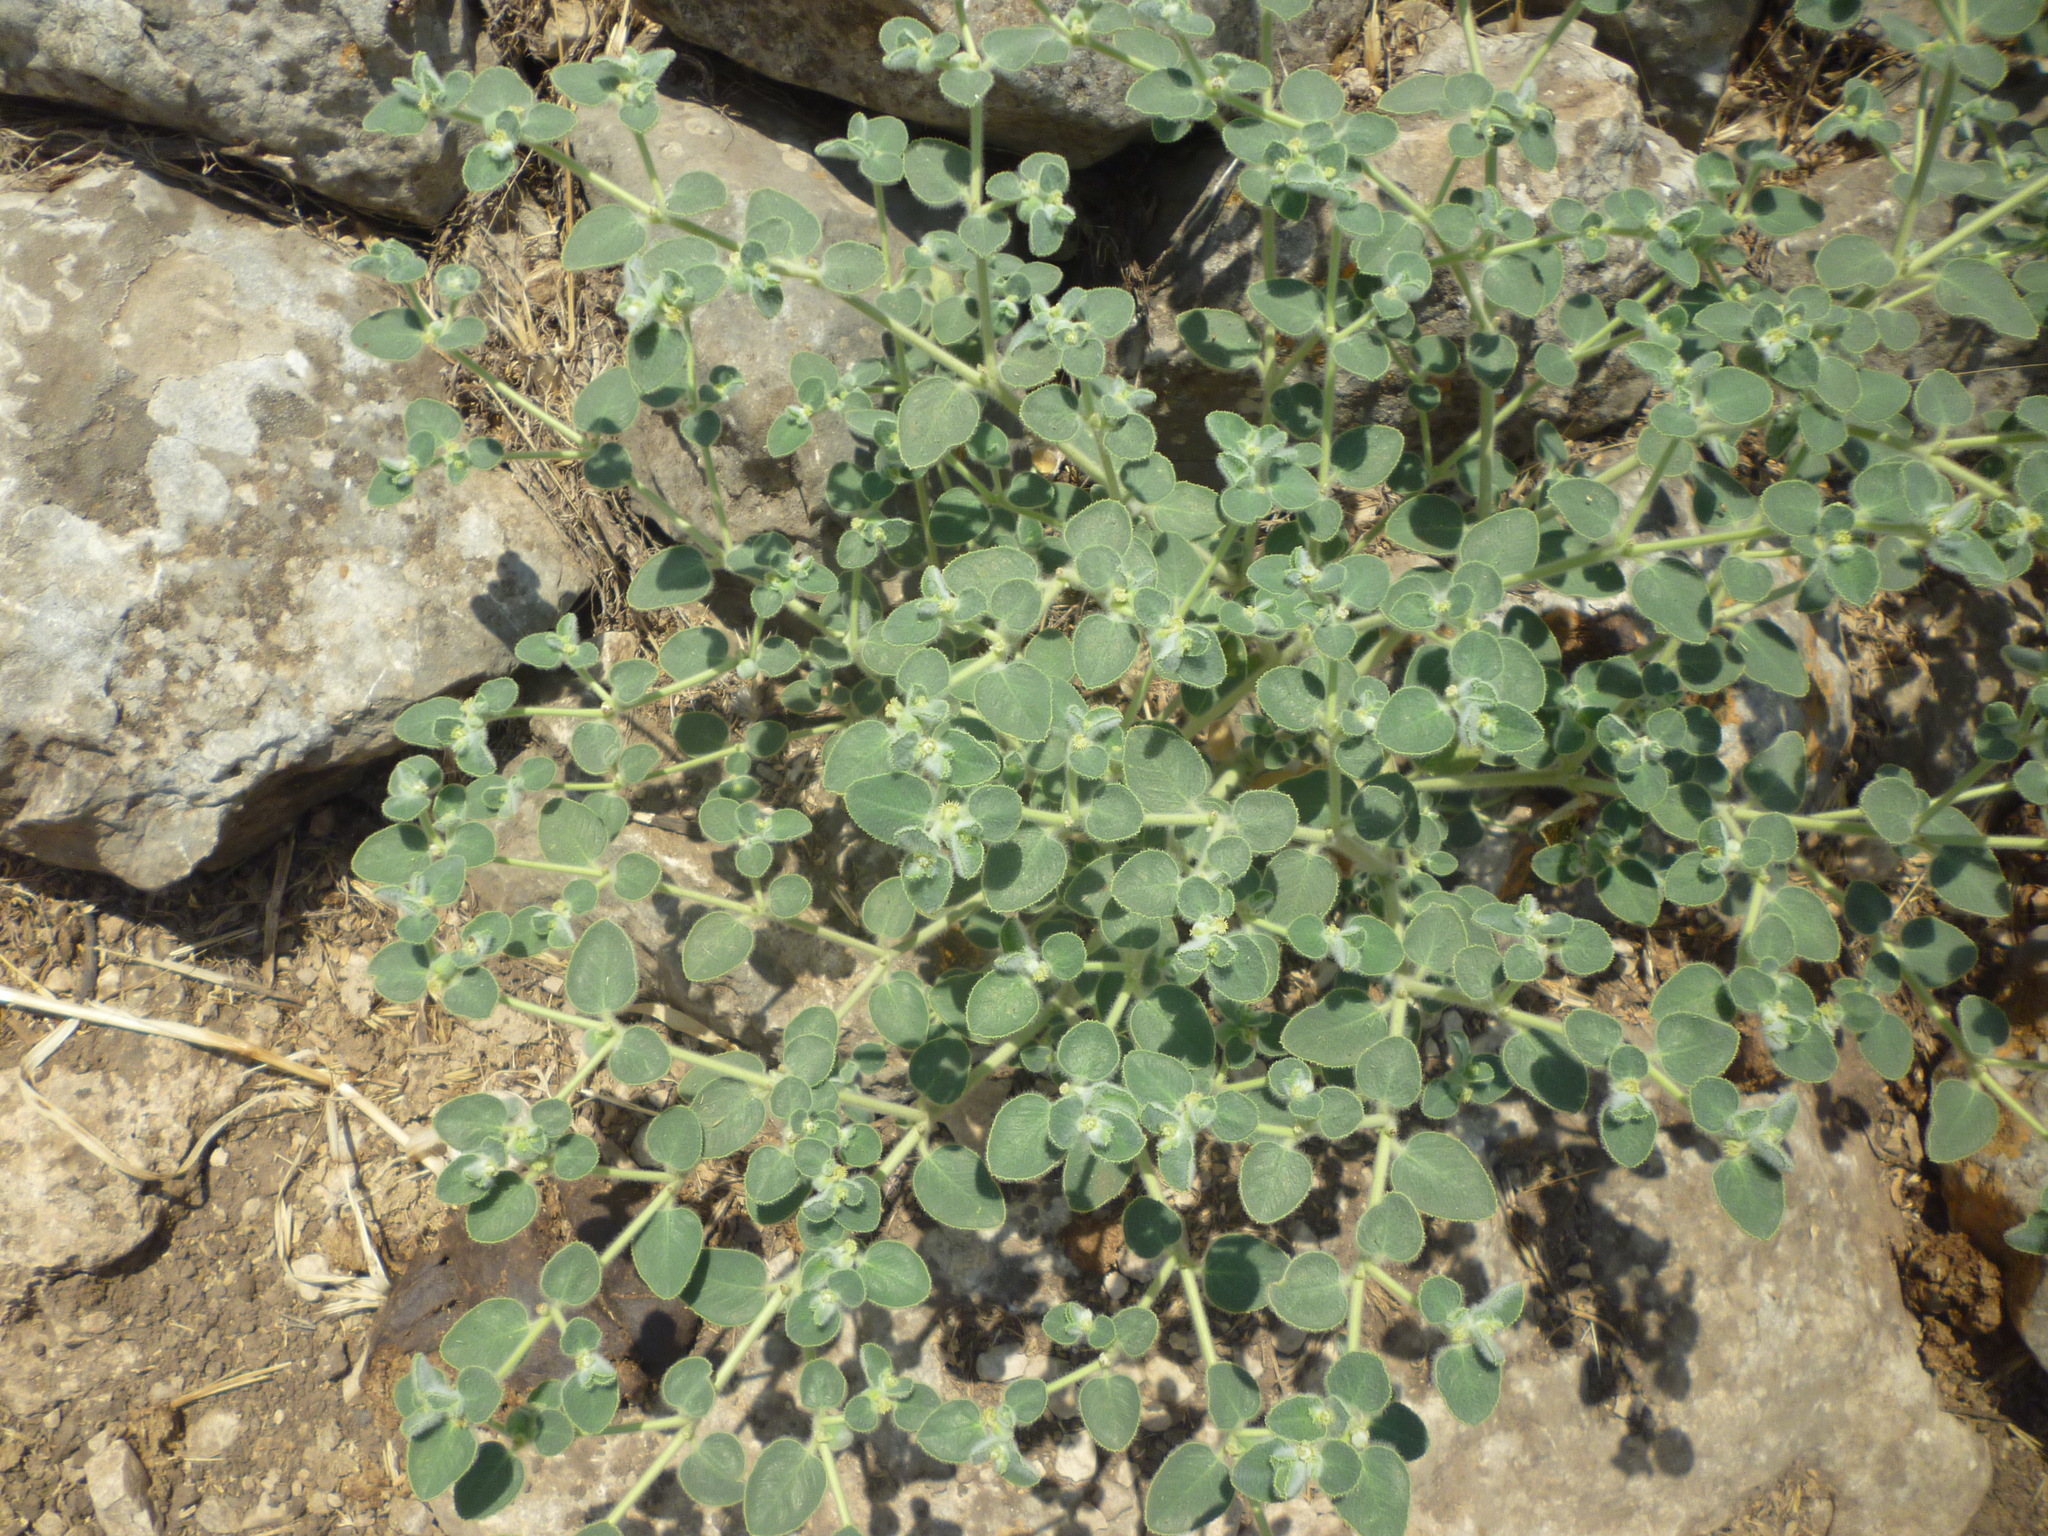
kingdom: Plantae
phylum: Tracheophyta
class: Magnoliopsida
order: Malpighiales
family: Euphorbiaceae
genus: Euphorbia
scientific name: Euphorbia petiolata
